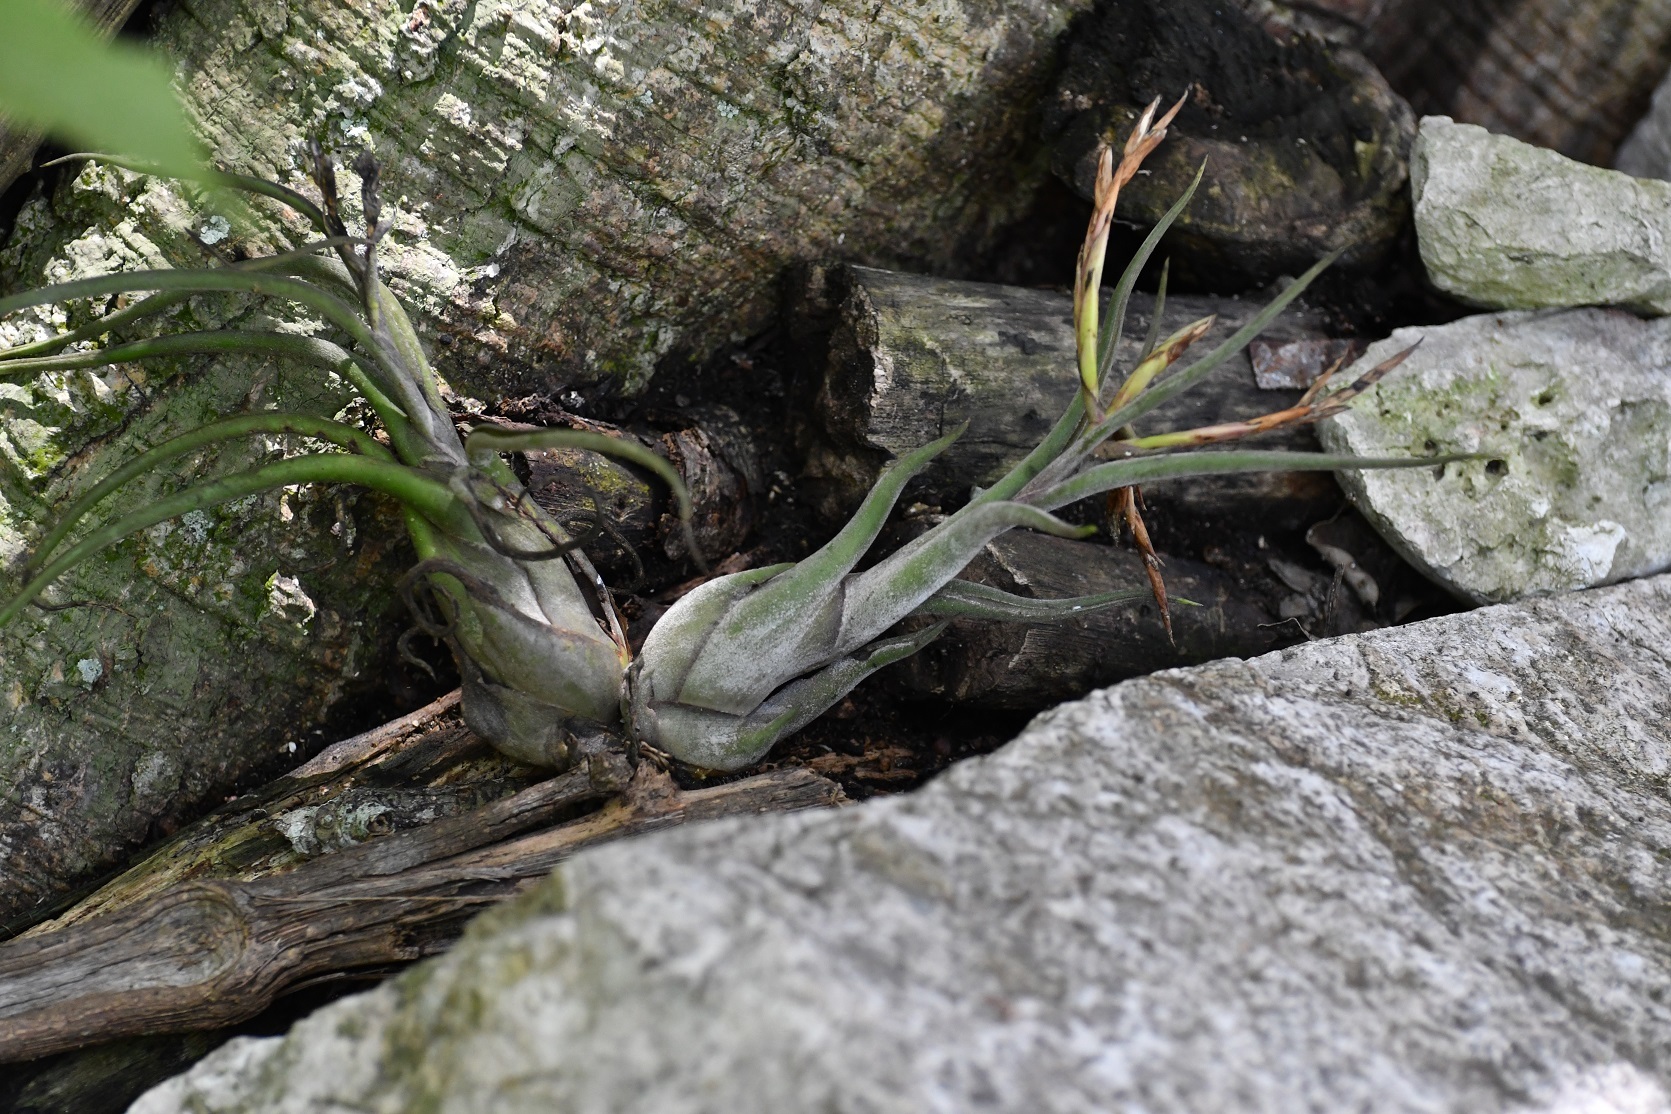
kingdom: Plantae
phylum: Tracheophyta
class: Liliopsida
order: Poales
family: Bromeliaceae
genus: Tillandsia
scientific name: Tillandsia caput-medusae
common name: Octopus plant
